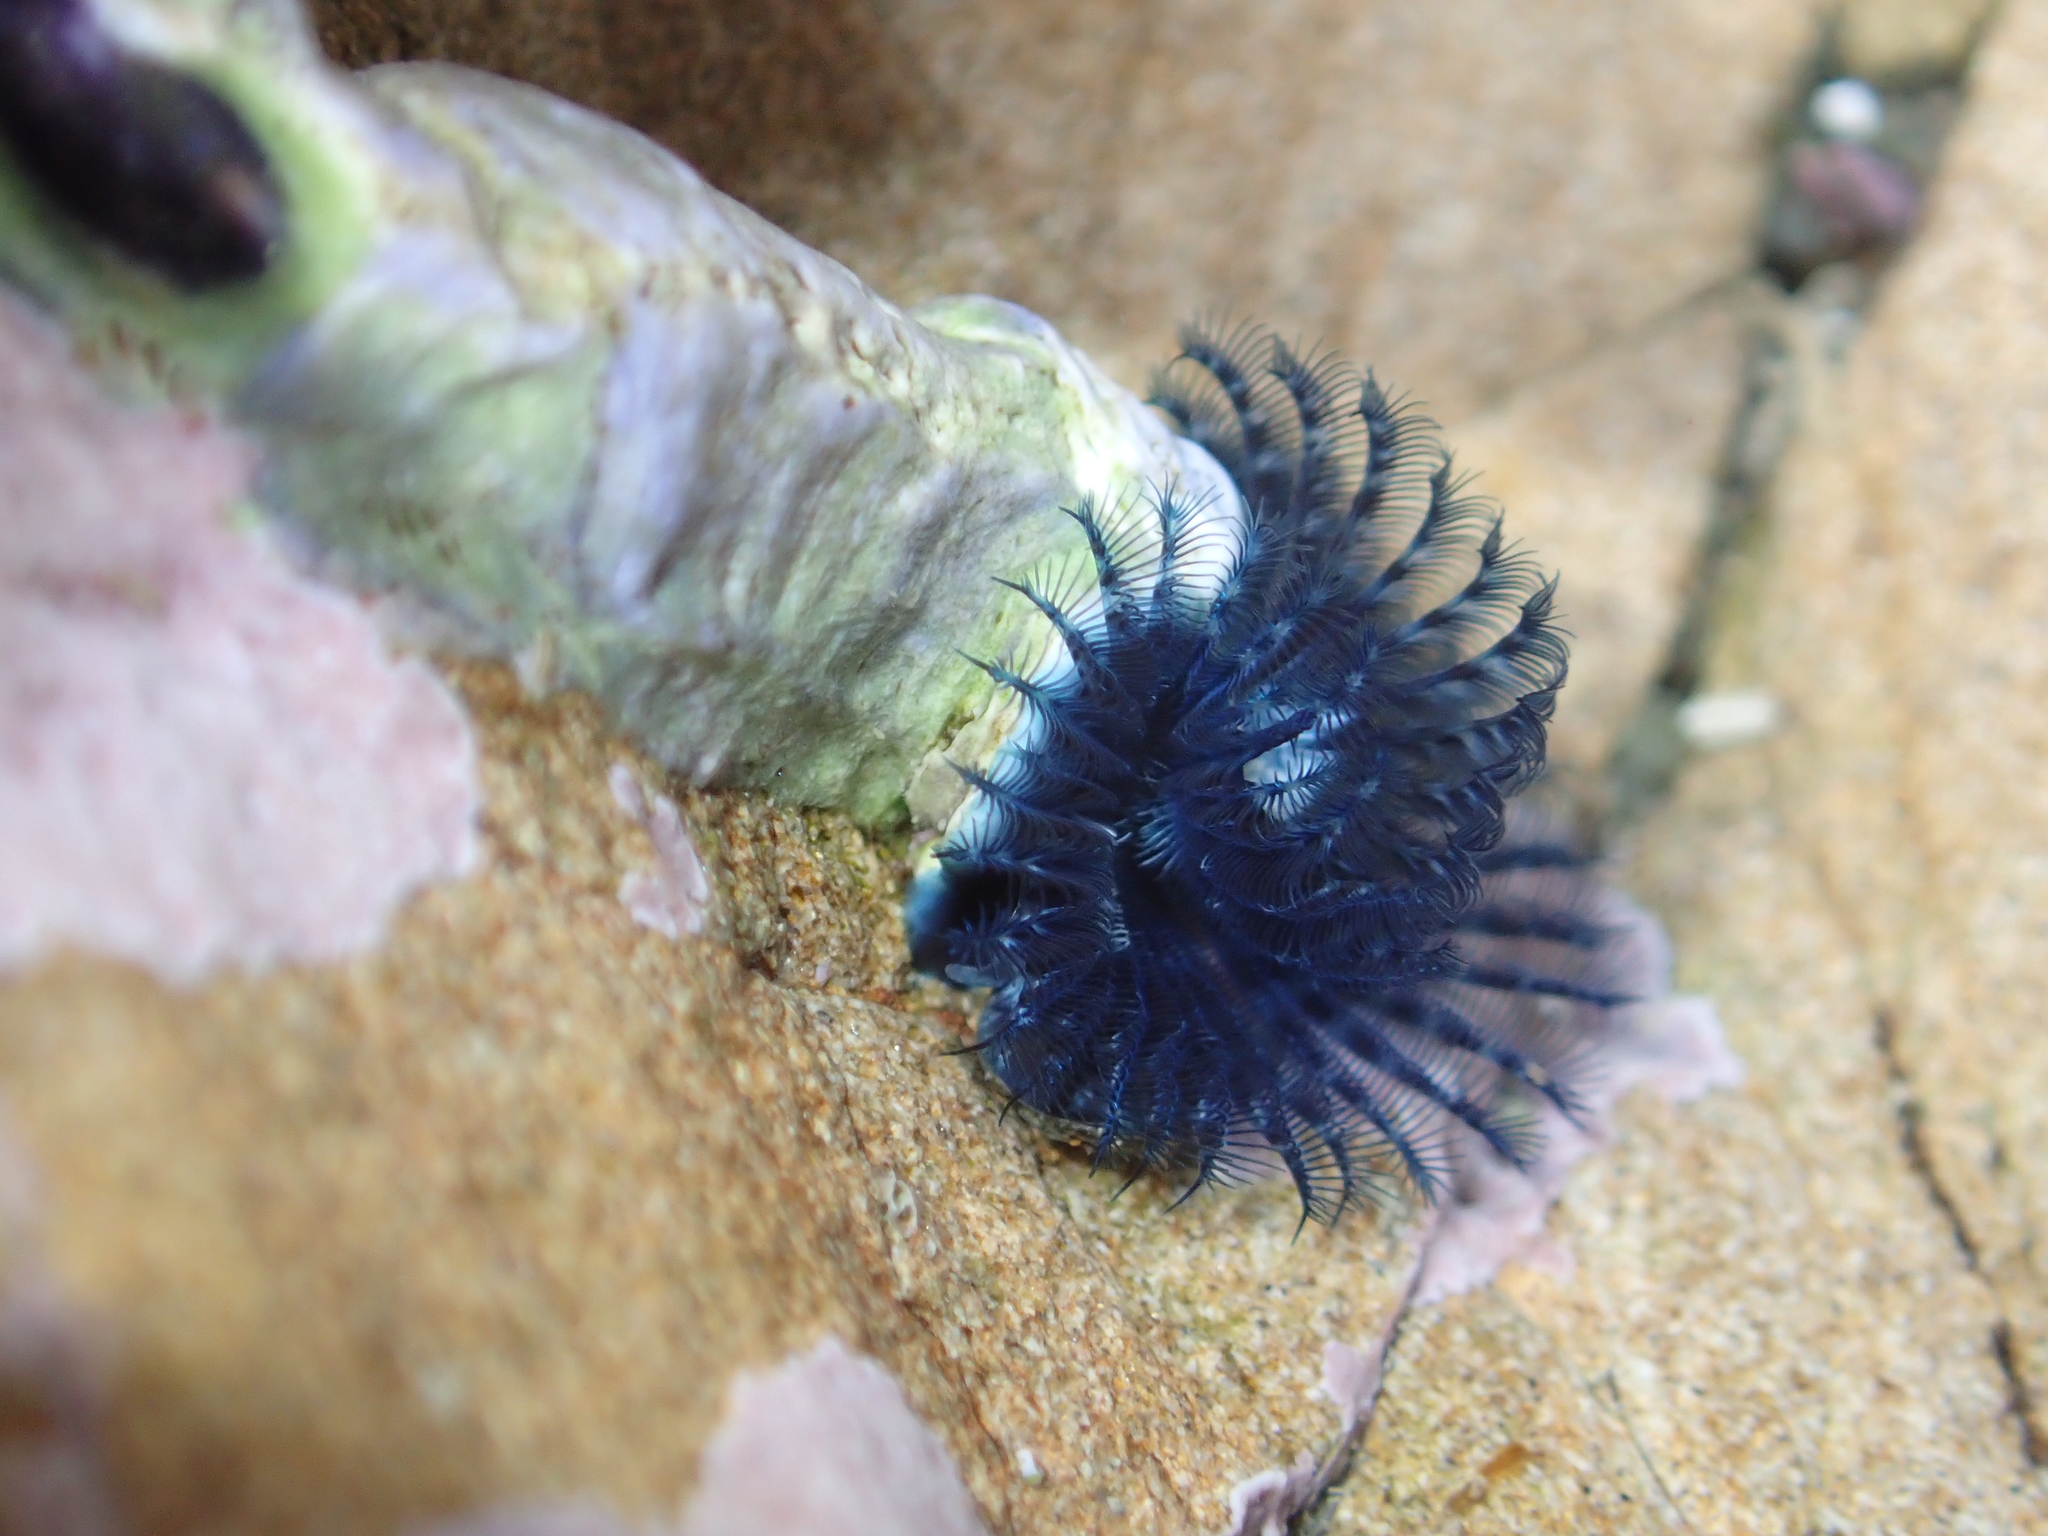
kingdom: Animalia
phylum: Annelida
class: Polychaeta
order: Sabellida
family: Serpulidae
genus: Spirobranchus
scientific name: Spirobranchus cariniferus
